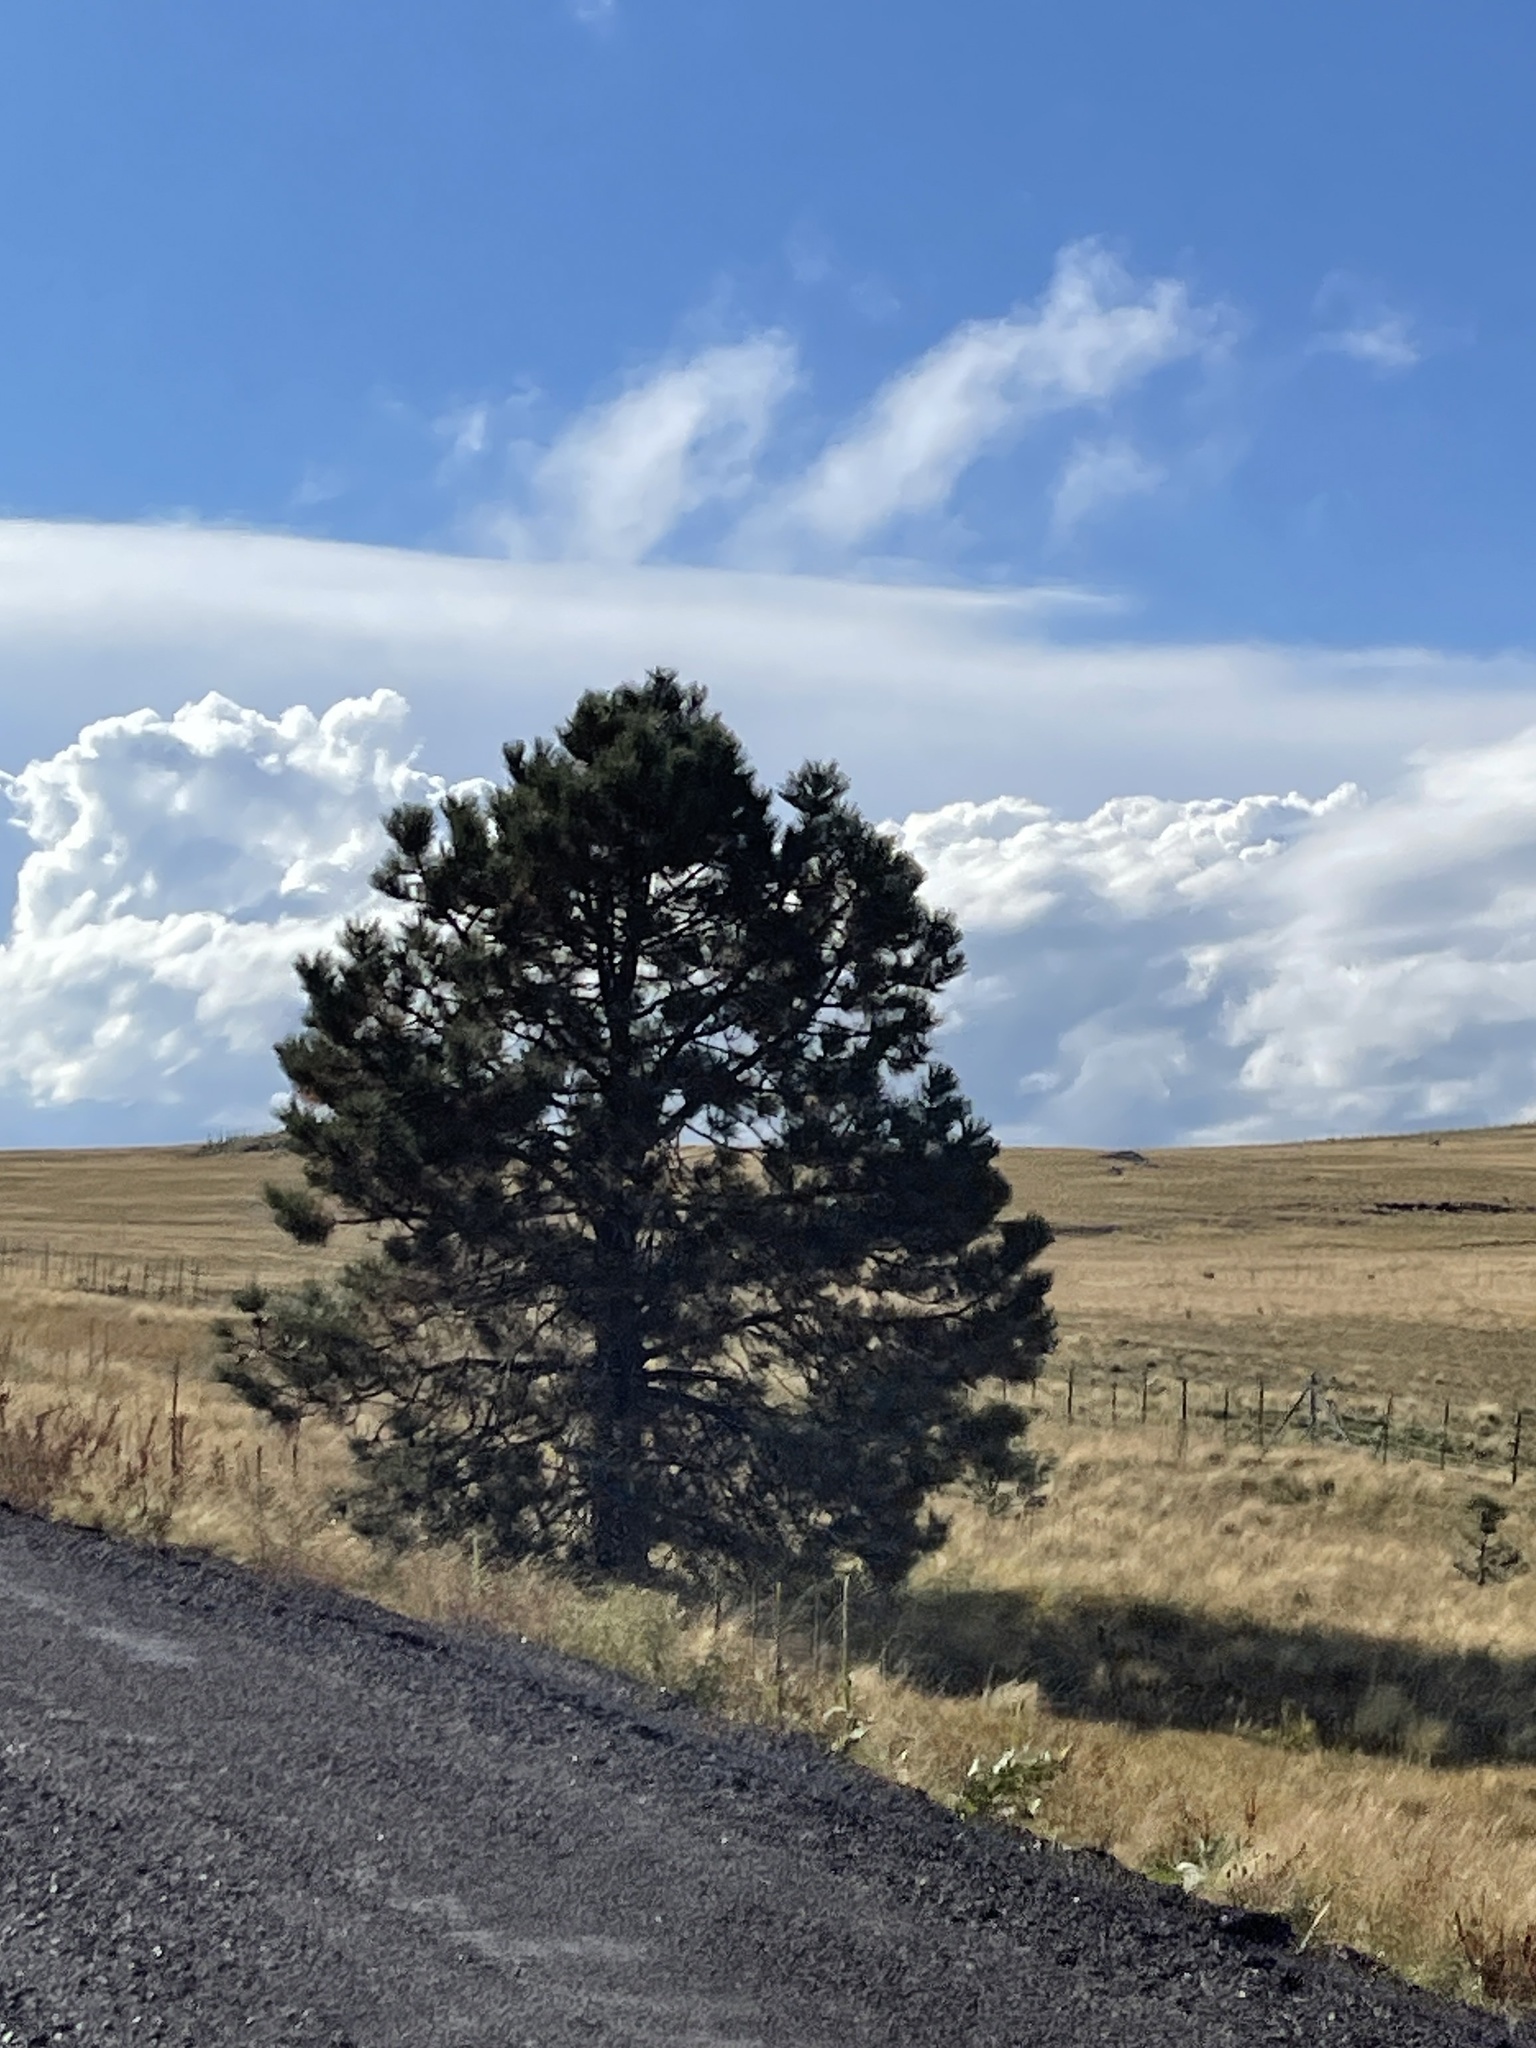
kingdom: Plantae
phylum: Tracheophyta
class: Pinopsida
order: Pinales
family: Pinaceae
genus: Pinus
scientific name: Pinus ponderosa
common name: Western yellow-pine
